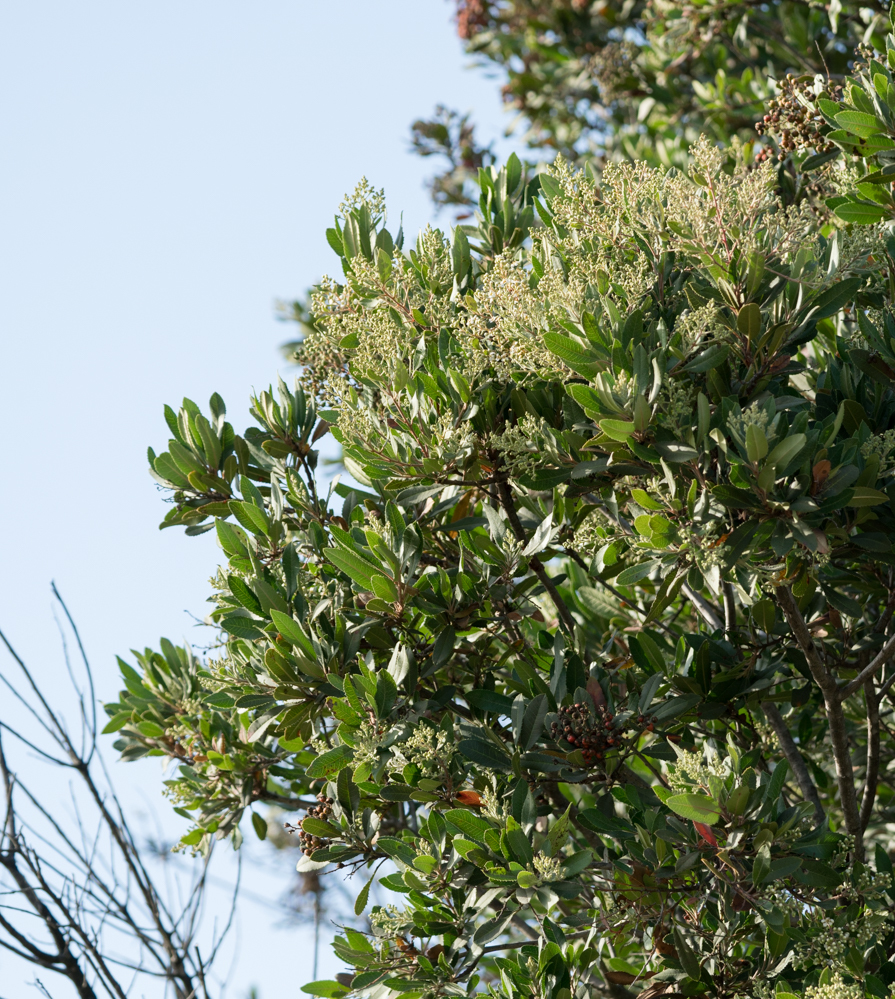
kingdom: Plantae
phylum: Tracheophyta
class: Magnoliopsida
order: Rosales
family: Rosaceae
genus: Heteromeles
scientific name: Heteromeles arbutifolia
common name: California-holly
